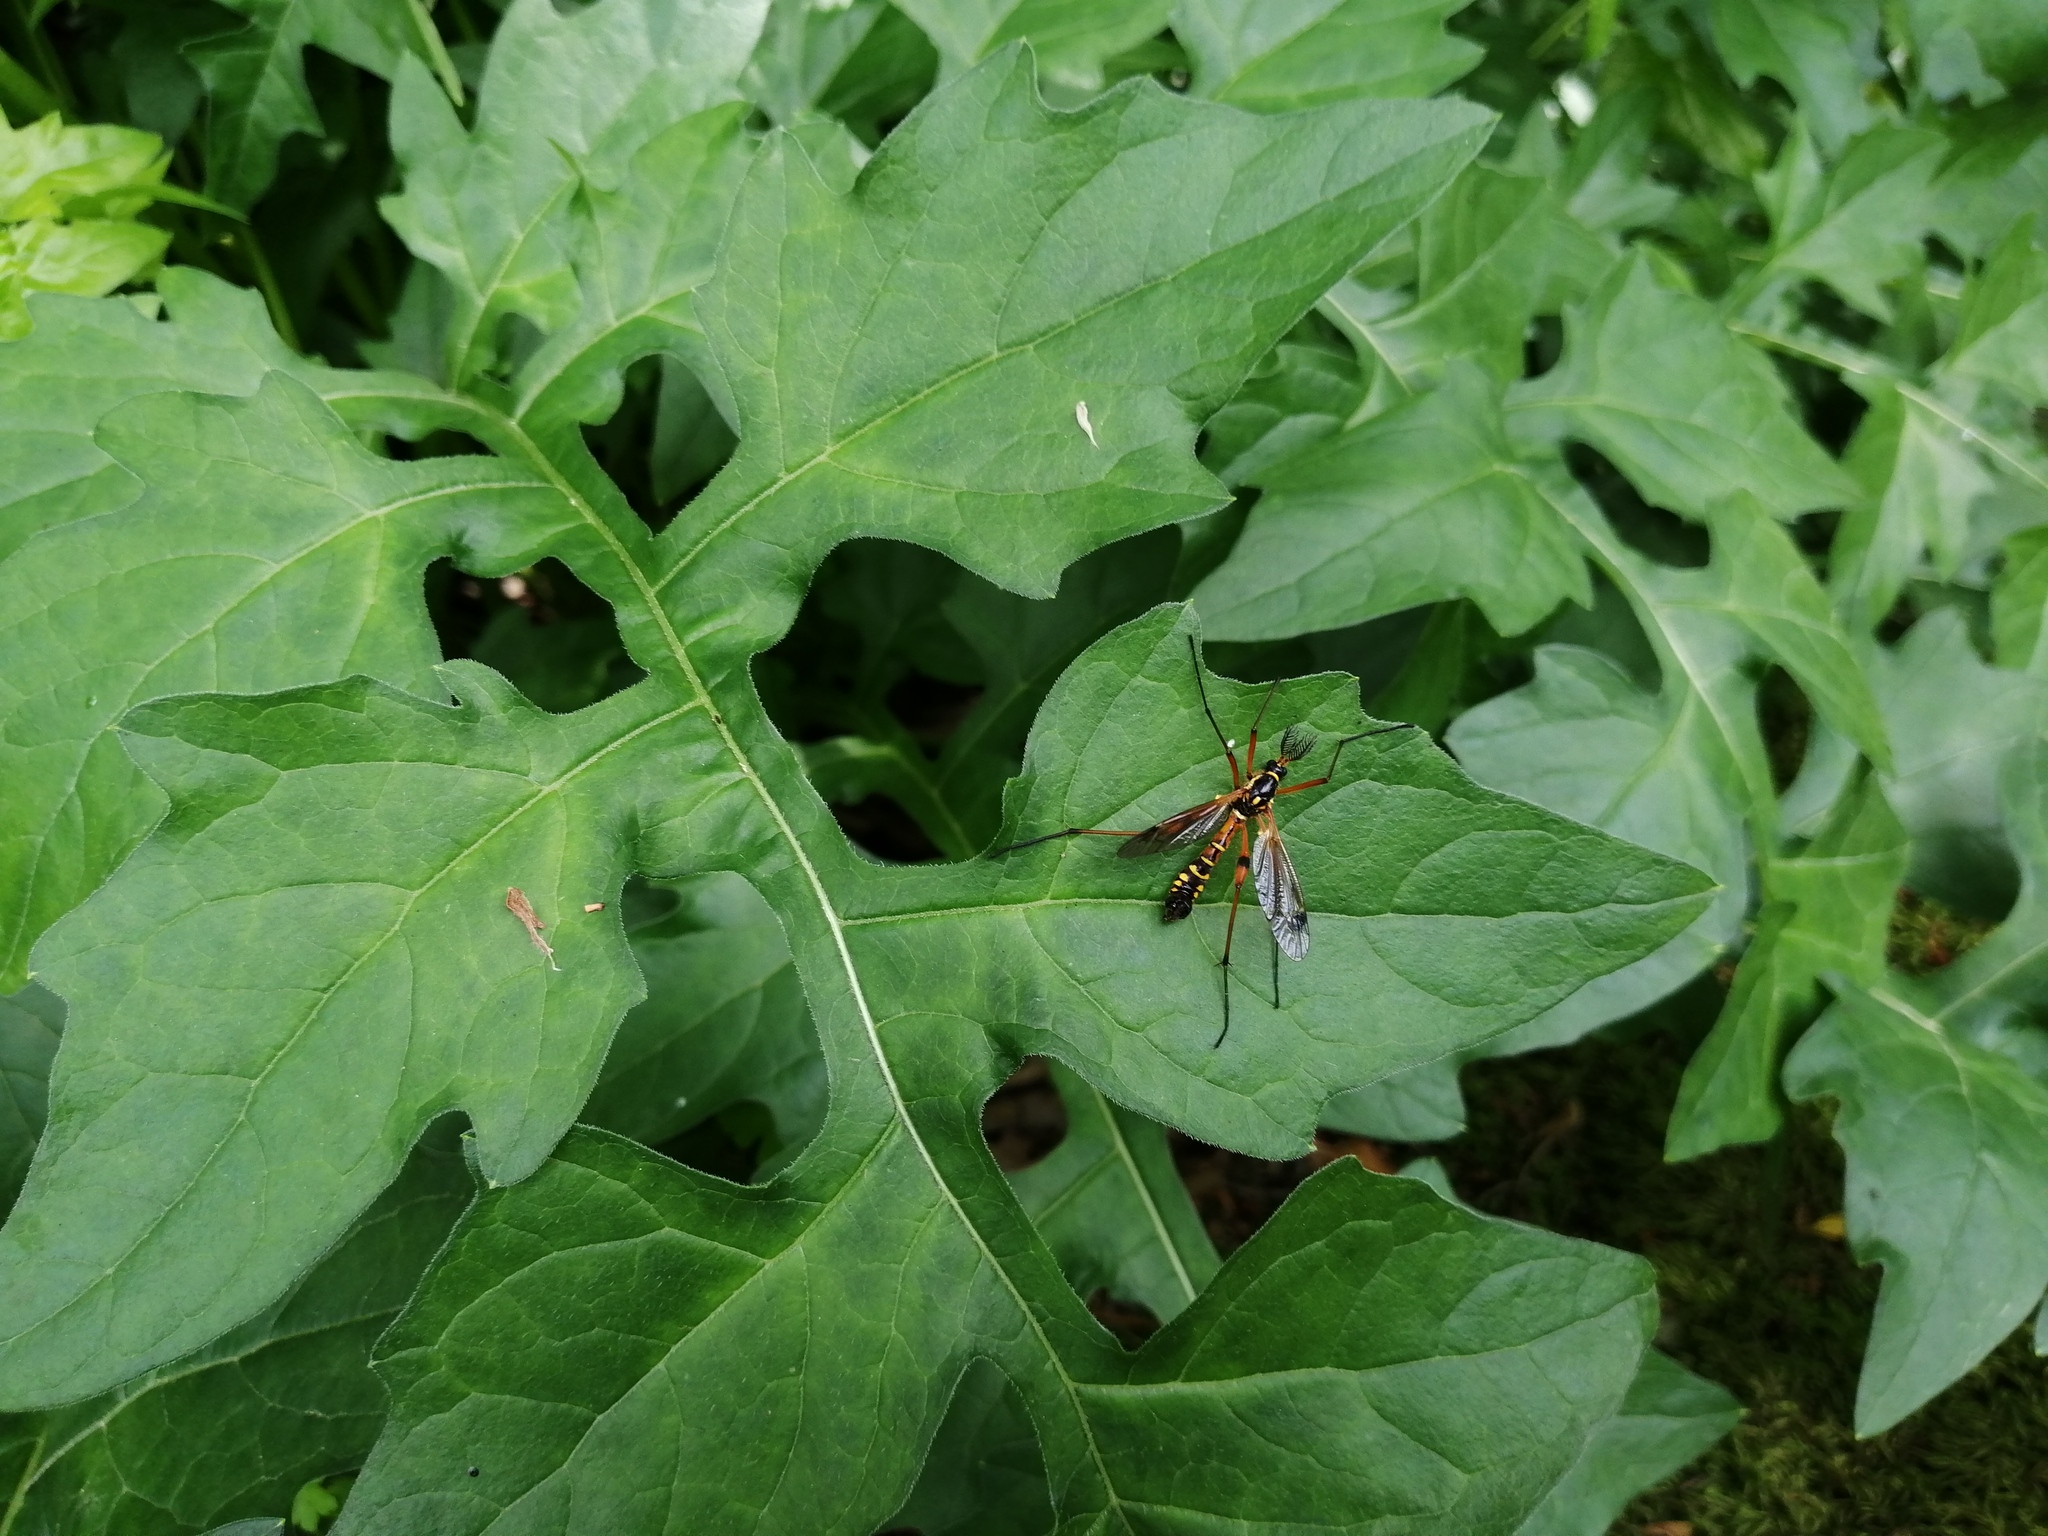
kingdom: Animalia
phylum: Arthropoda
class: Insecta
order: Diptera
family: Tipulidae
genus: Ctenophora
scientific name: Ctenophora elegans
